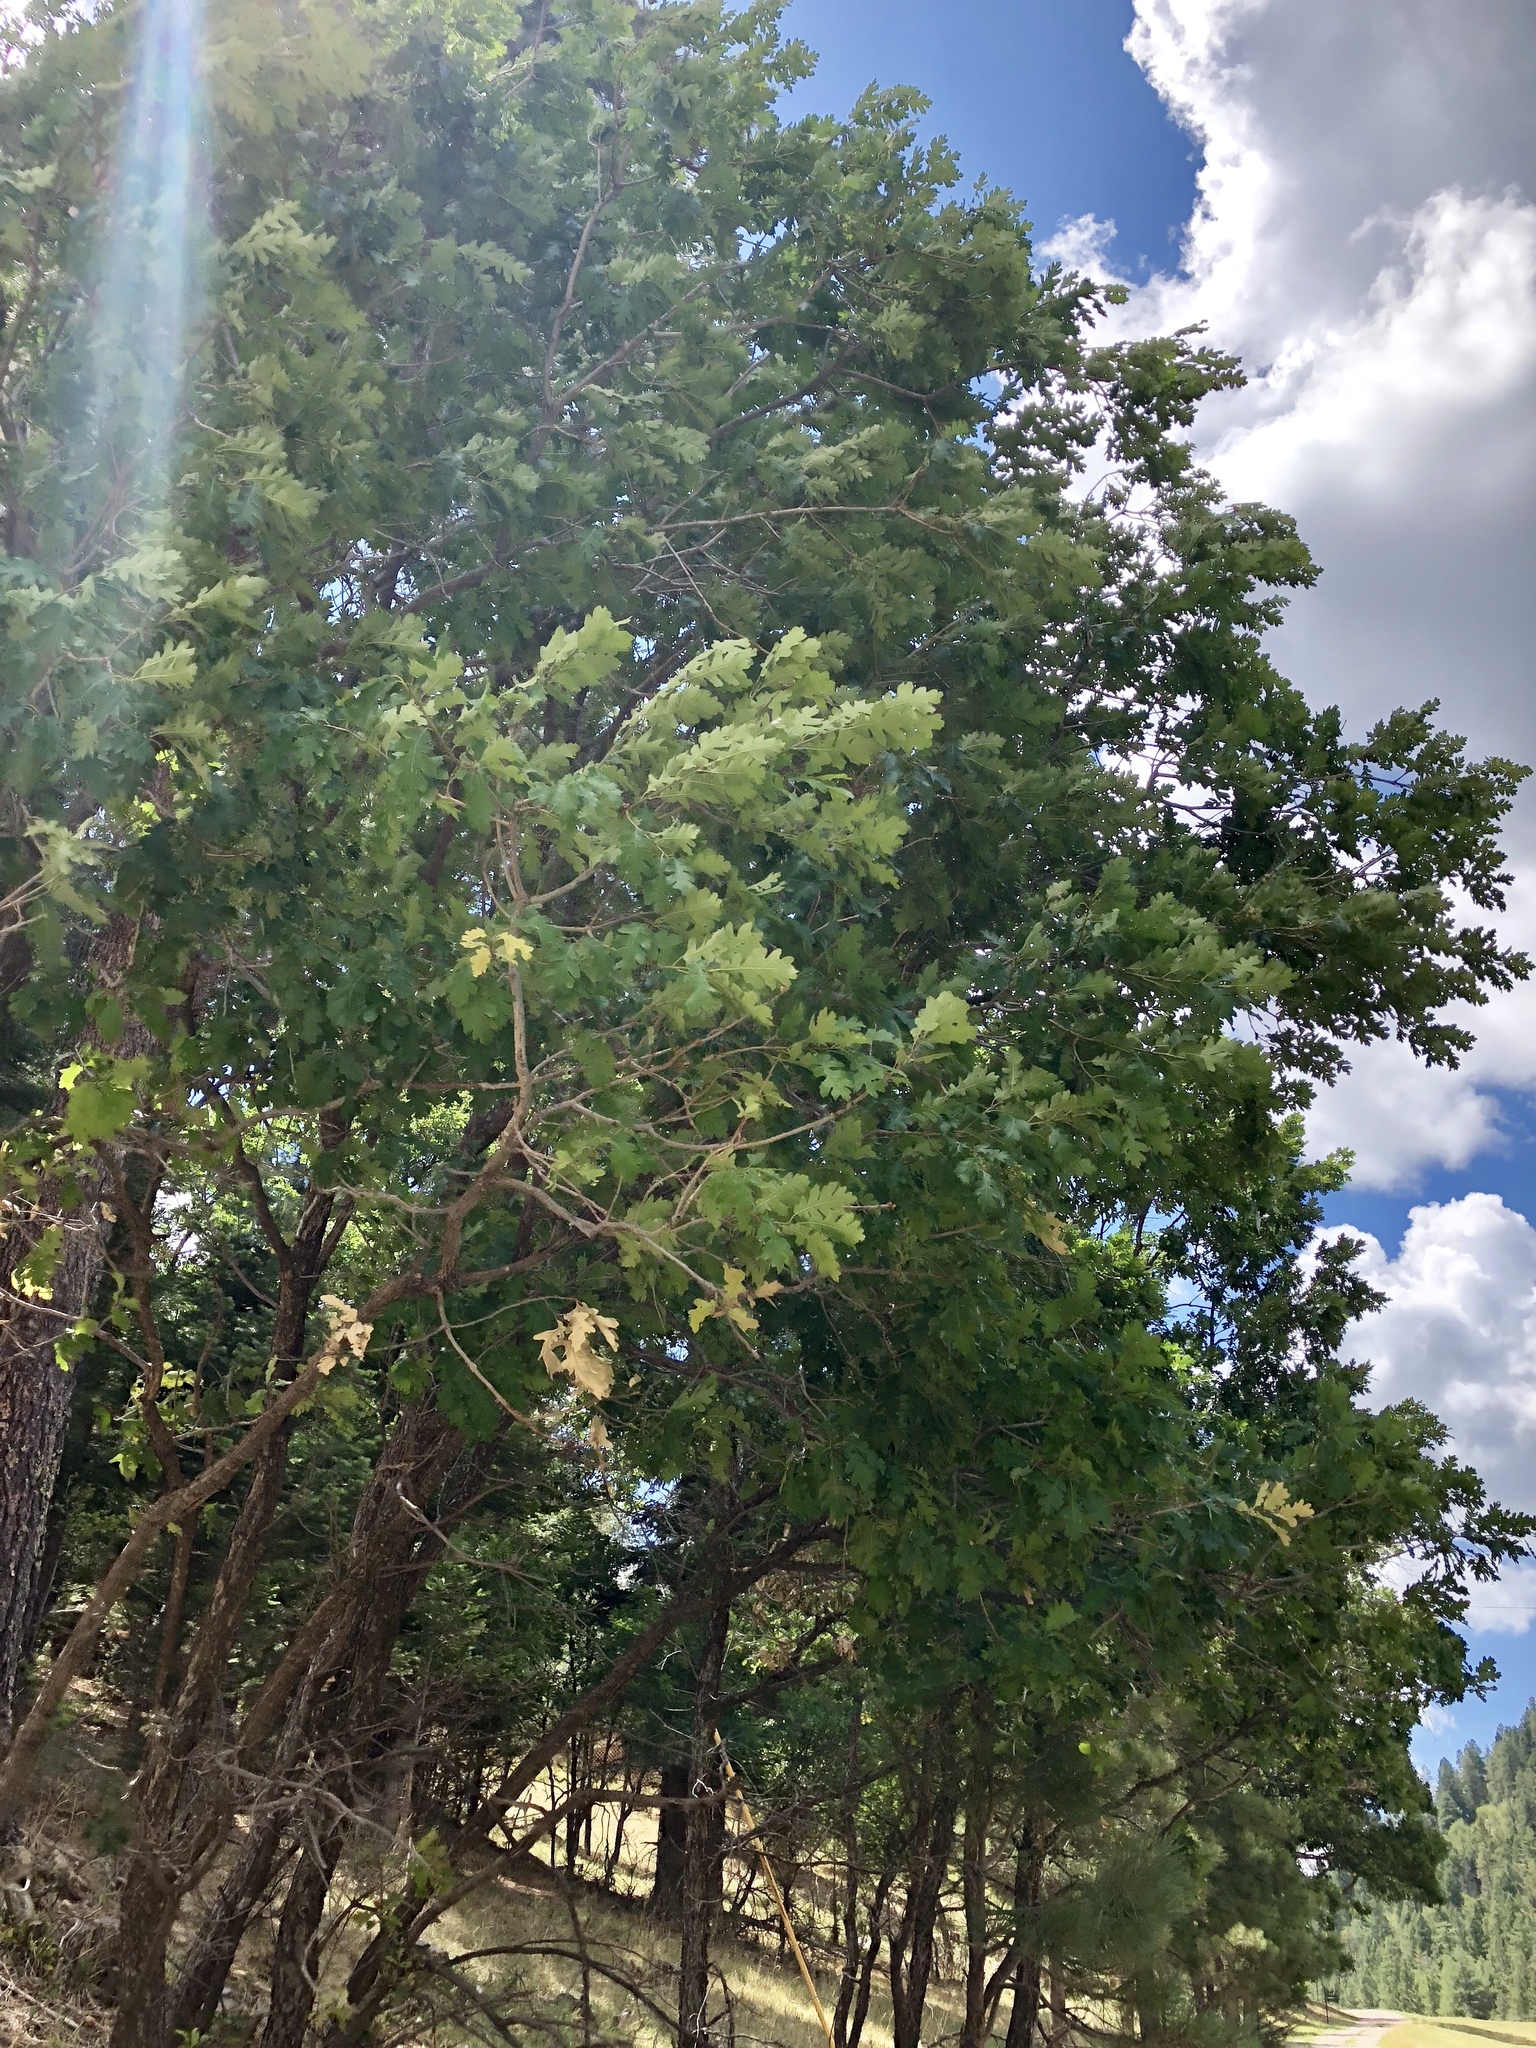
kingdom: Plantae
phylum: Tracheophyta
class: Magnoliopsida
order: Fagales
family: Fagaceae
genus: Quercus
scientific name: Quercus gambelii
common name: Gambel oak
